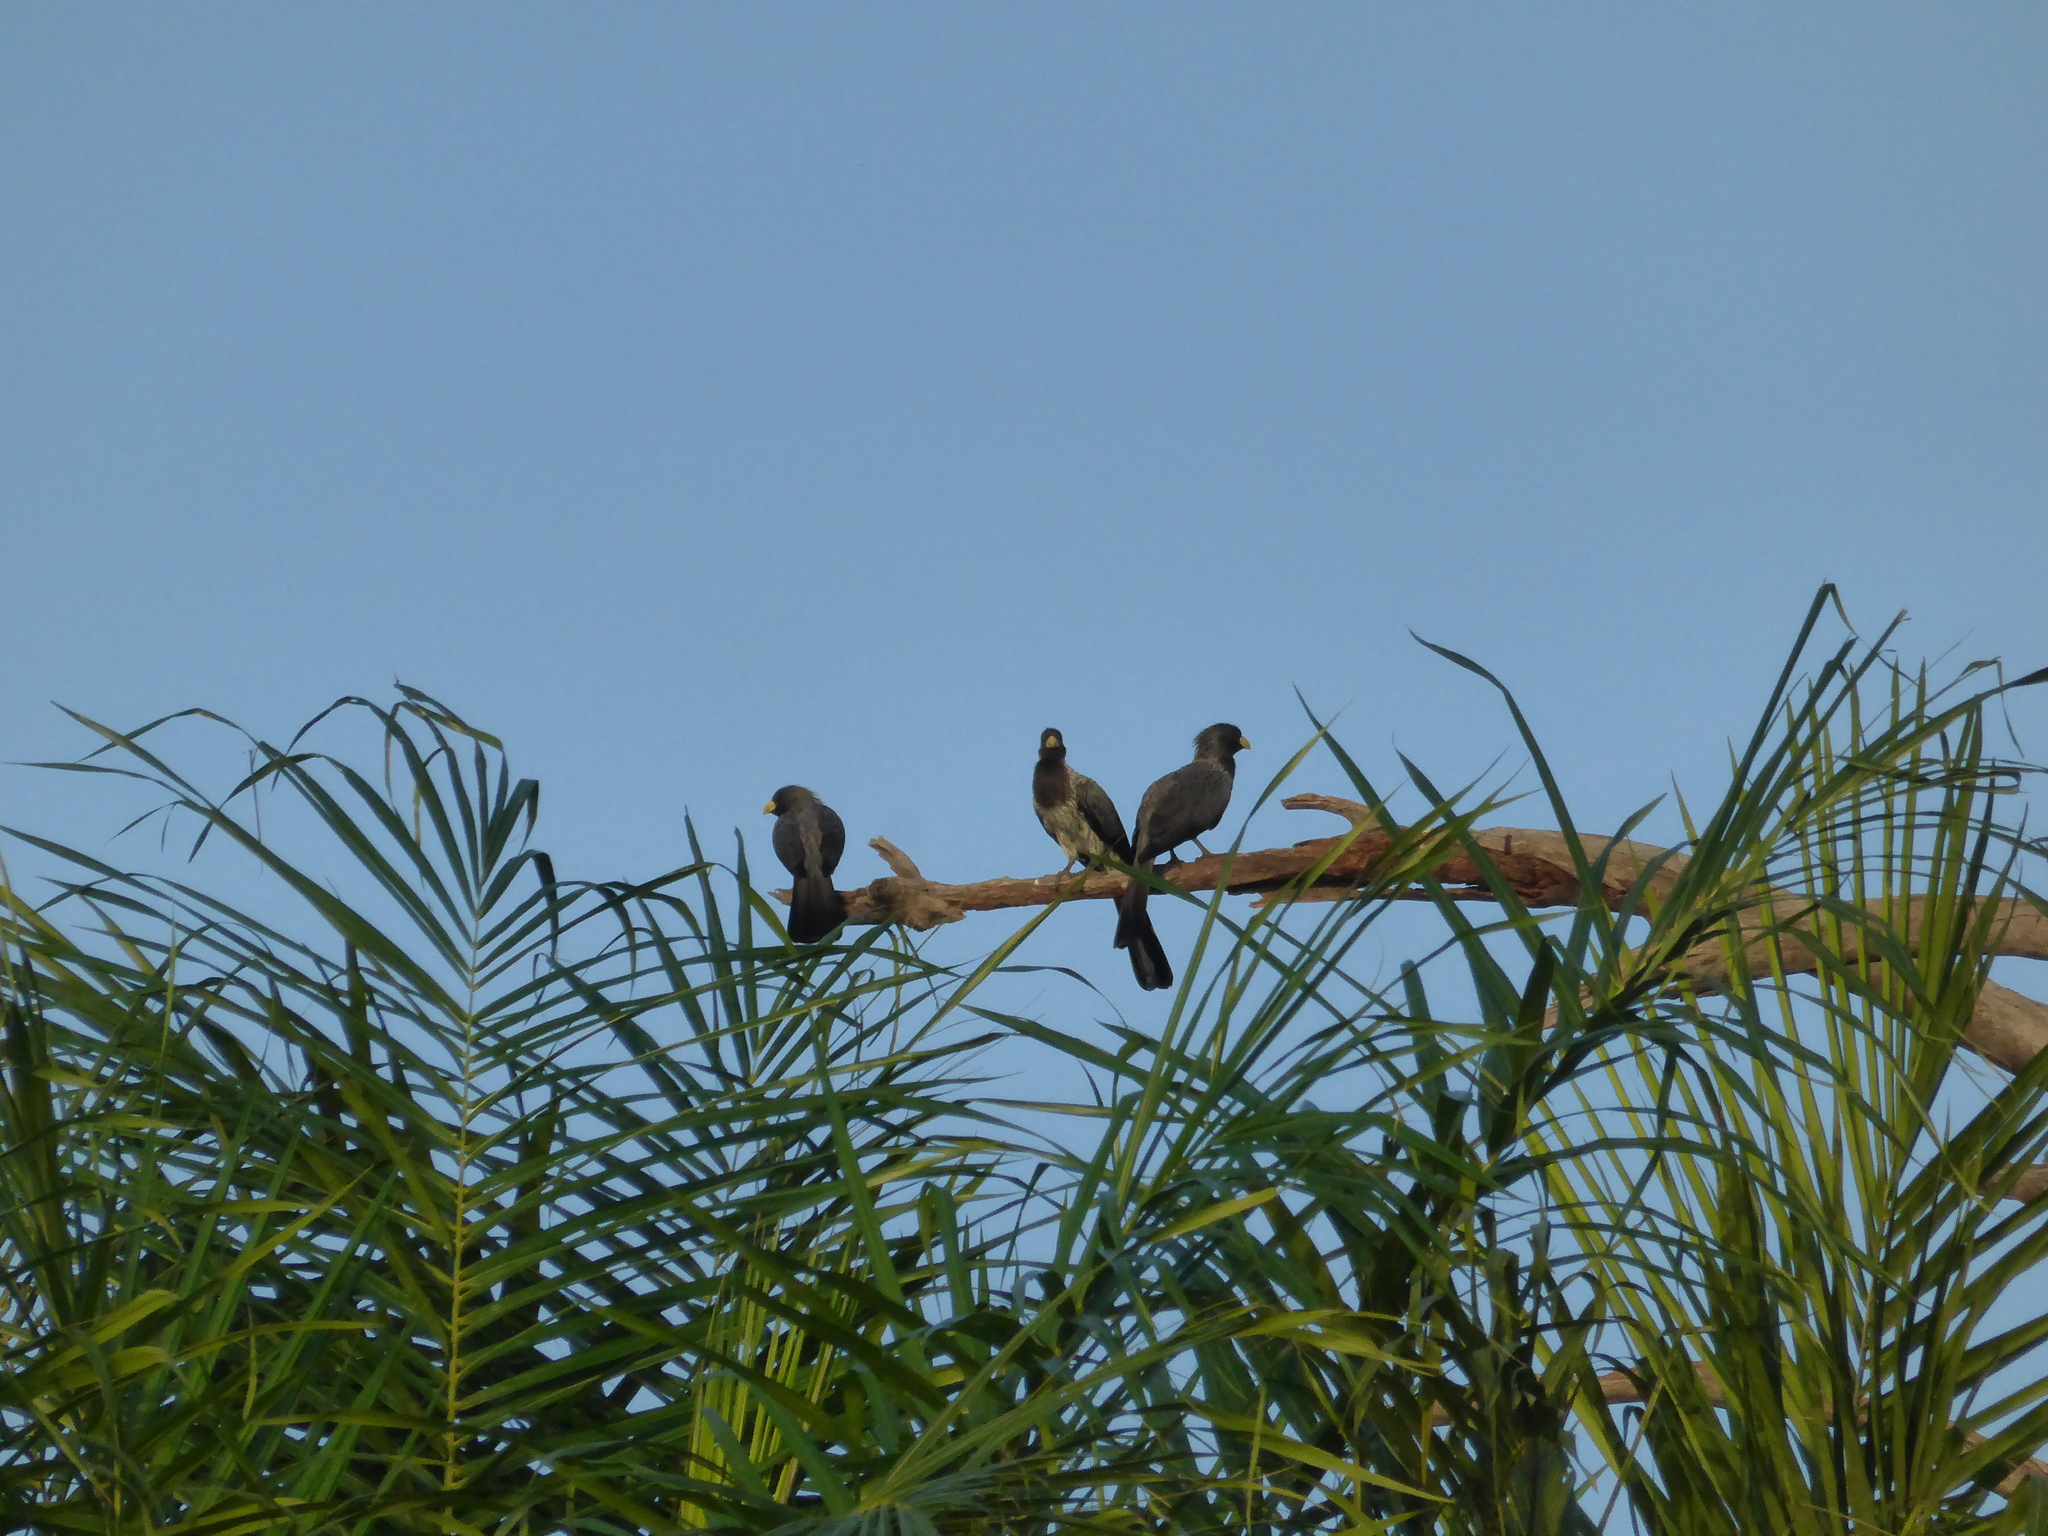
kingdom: Animalia
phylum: Chordata
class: Aves
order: Musophagiformes
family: Musophagidae
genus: Crinifer
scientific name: Crinifer piscator
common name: Western plantain-eater
